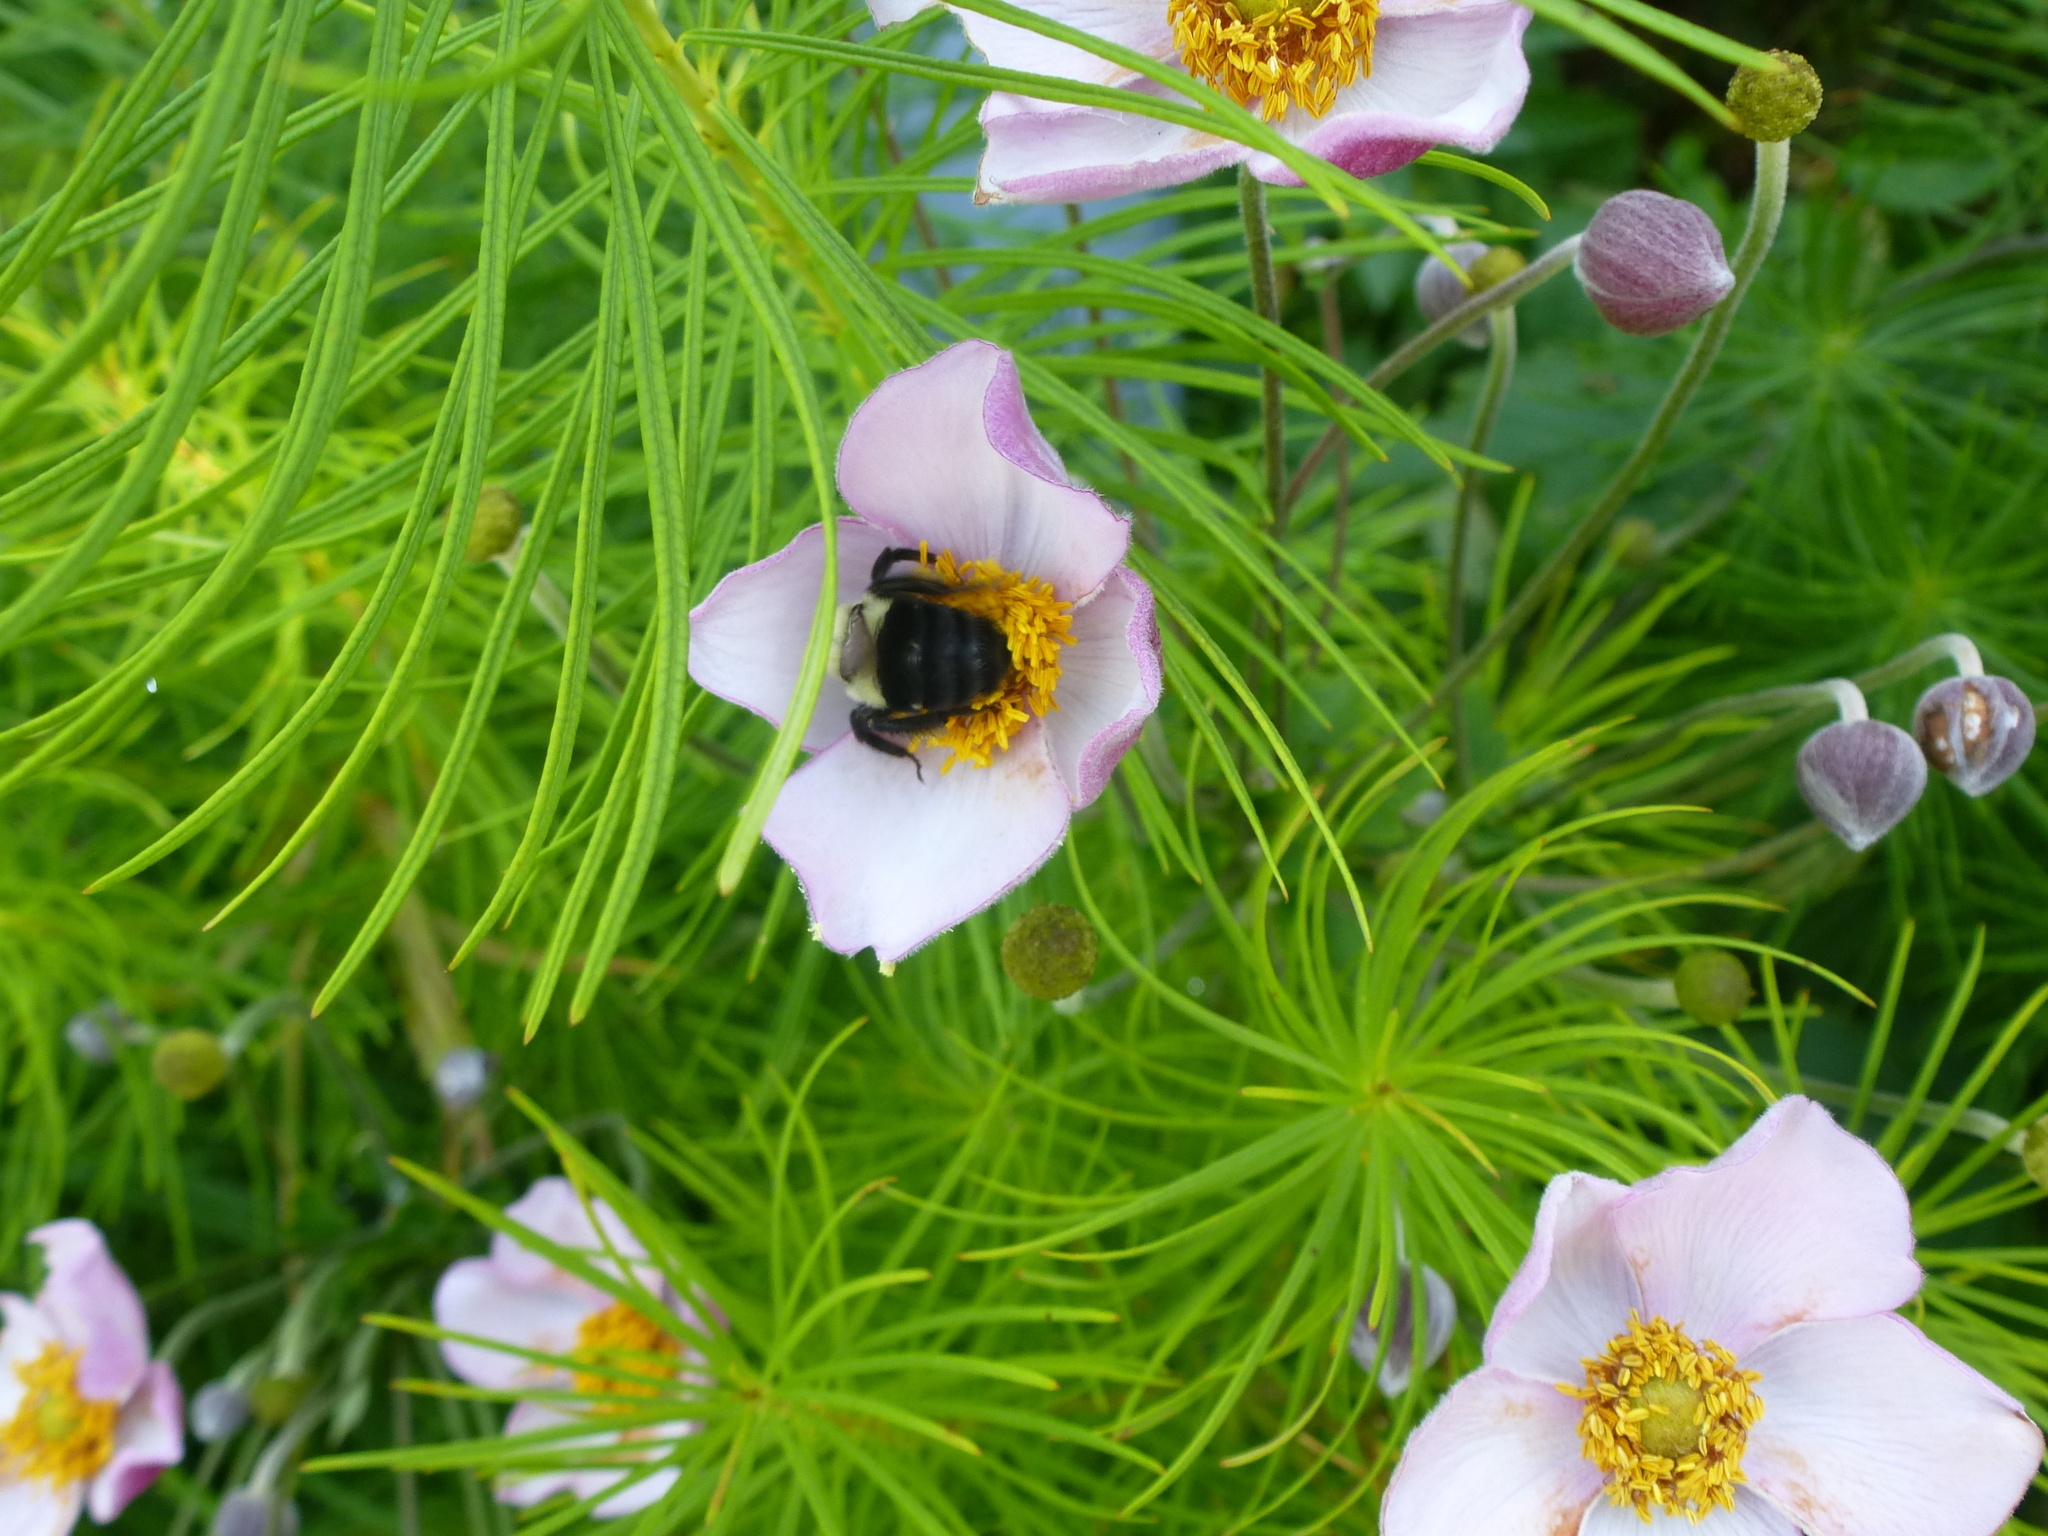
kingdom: Animalia
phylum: Arthropoda
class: Insecta
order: Hymenoptera
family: Apidae
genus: Bombus
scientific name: Bombus impatiens
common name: Common eastern bumble bee
